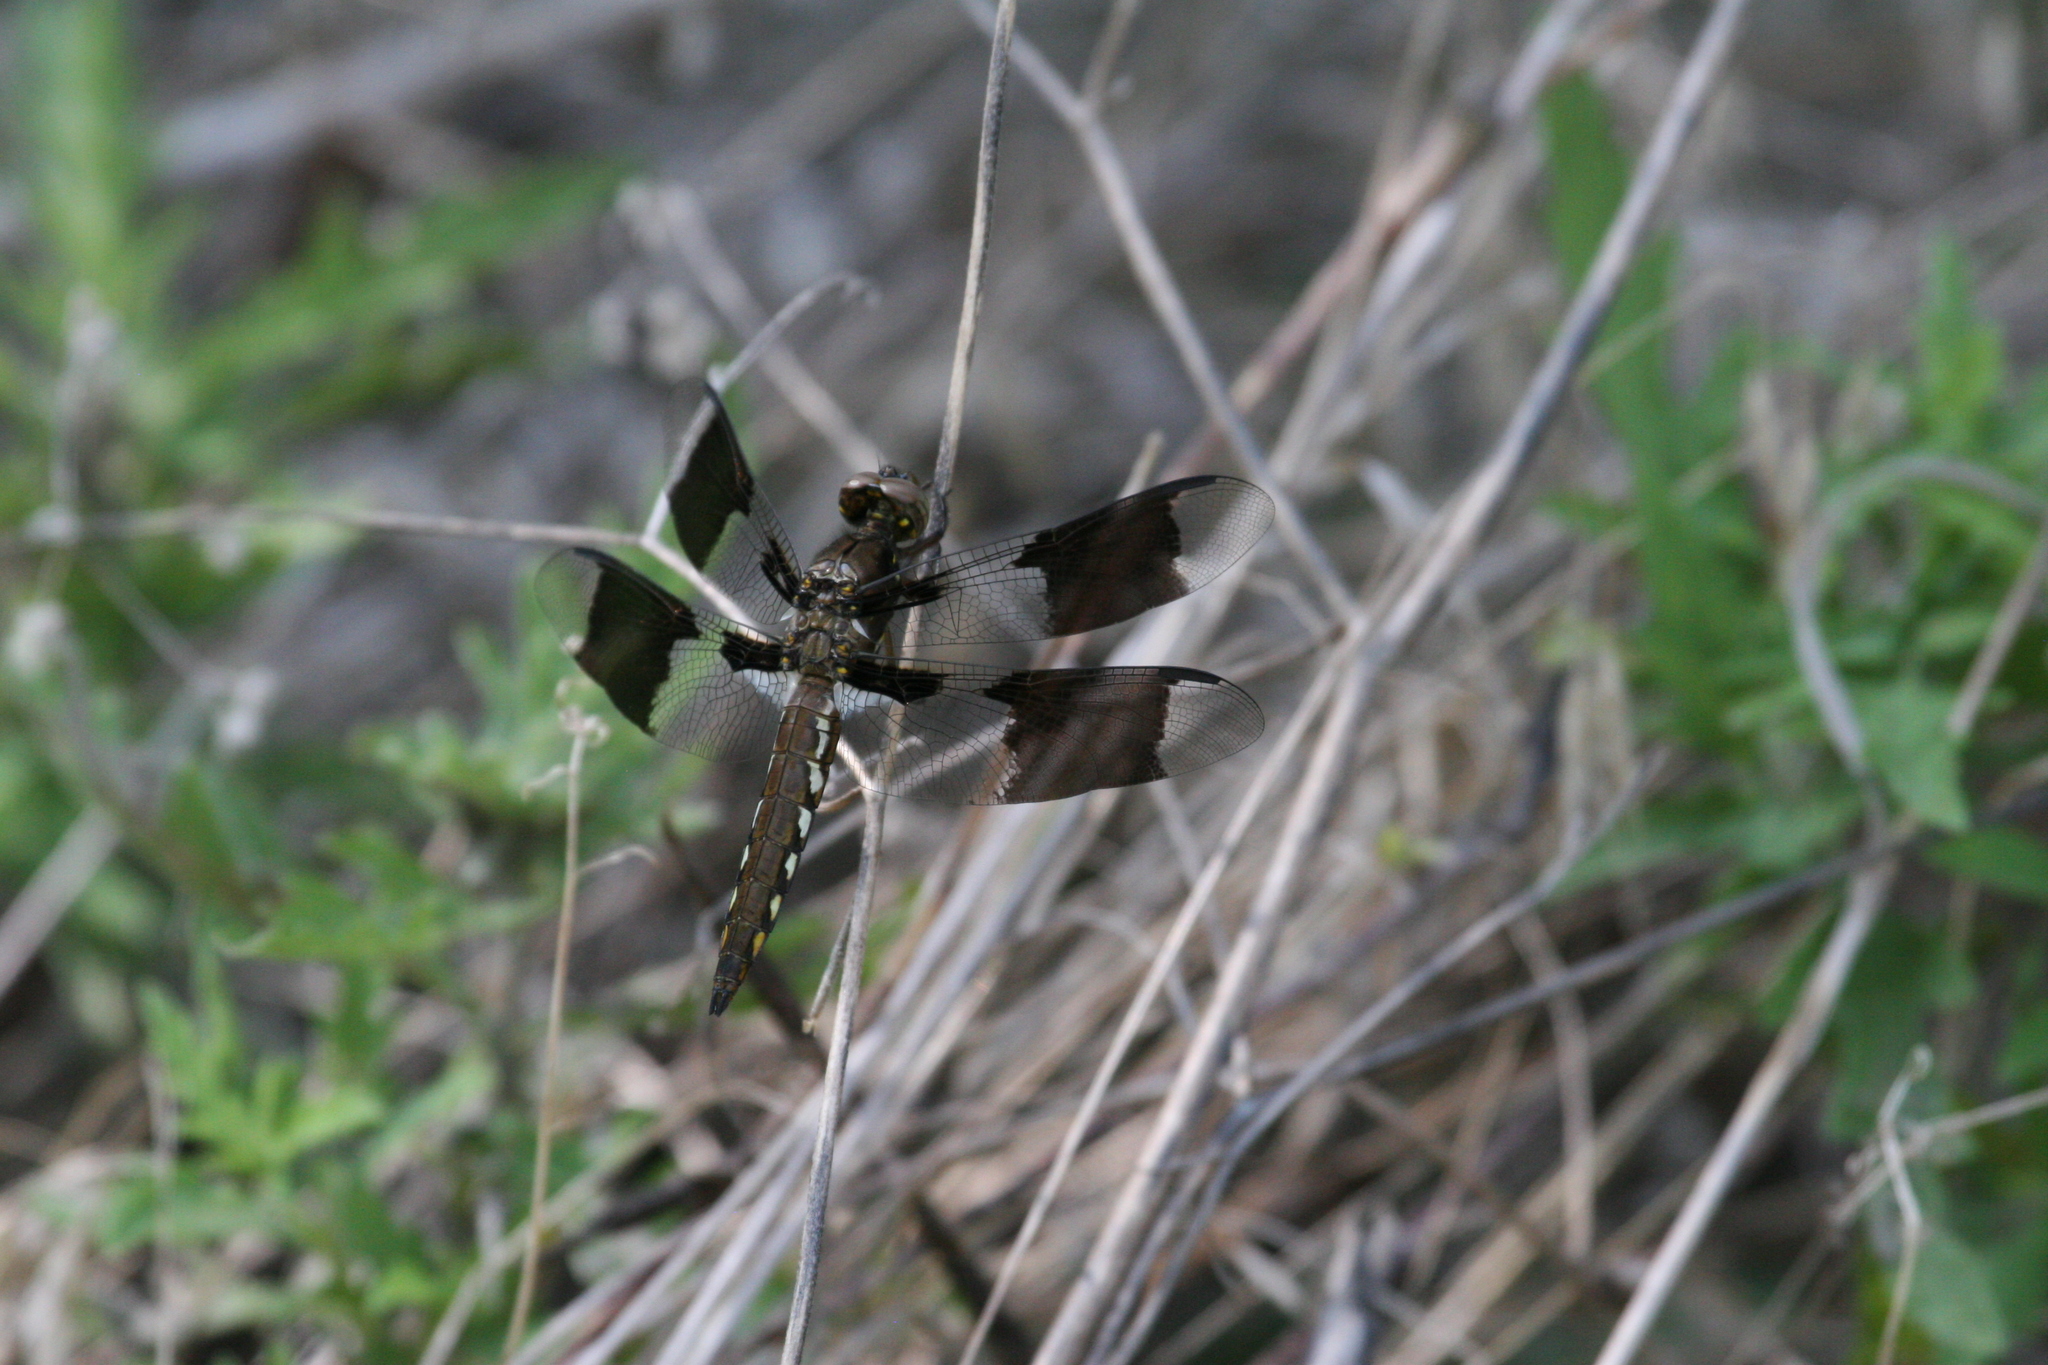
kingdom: Animalia
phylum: Arthropoda
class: Insecta
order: Odonata
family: Libellulidae
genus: Plathemis
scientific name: Plathemis lydia
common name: Common whitetail
